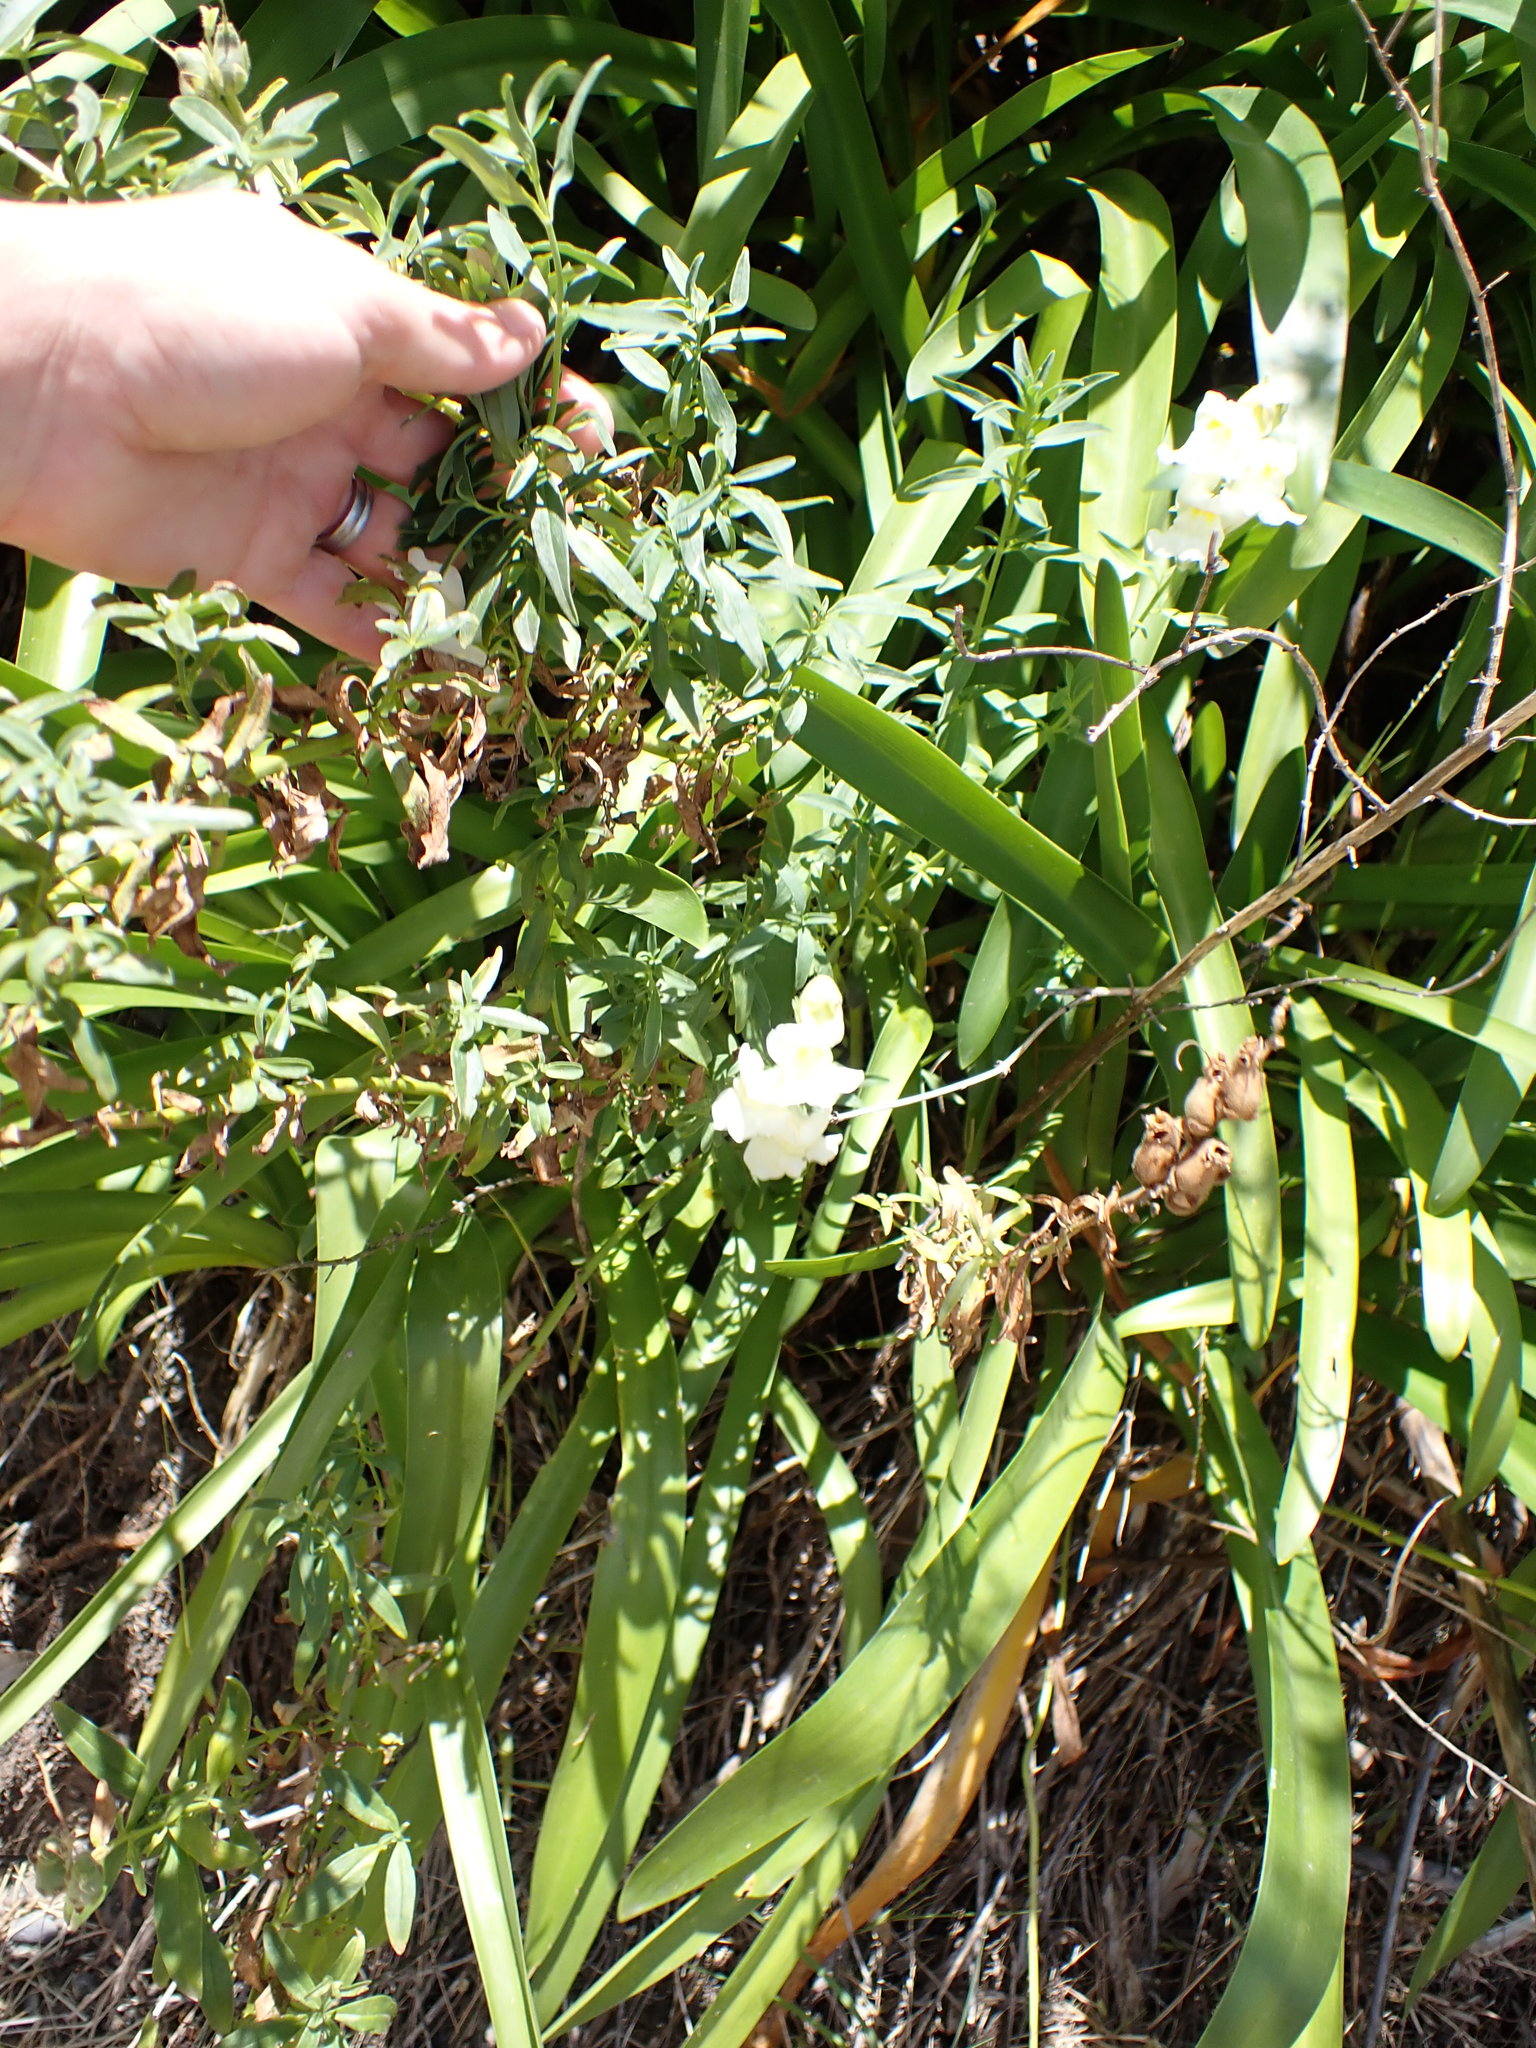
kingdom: Plantae
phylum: Tracheophyta
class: Magnoliopsida
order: Lamiales
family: Plantaginaceae
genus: Antirrhinum
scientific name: Antirrhinum majus
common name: Snapdragon
